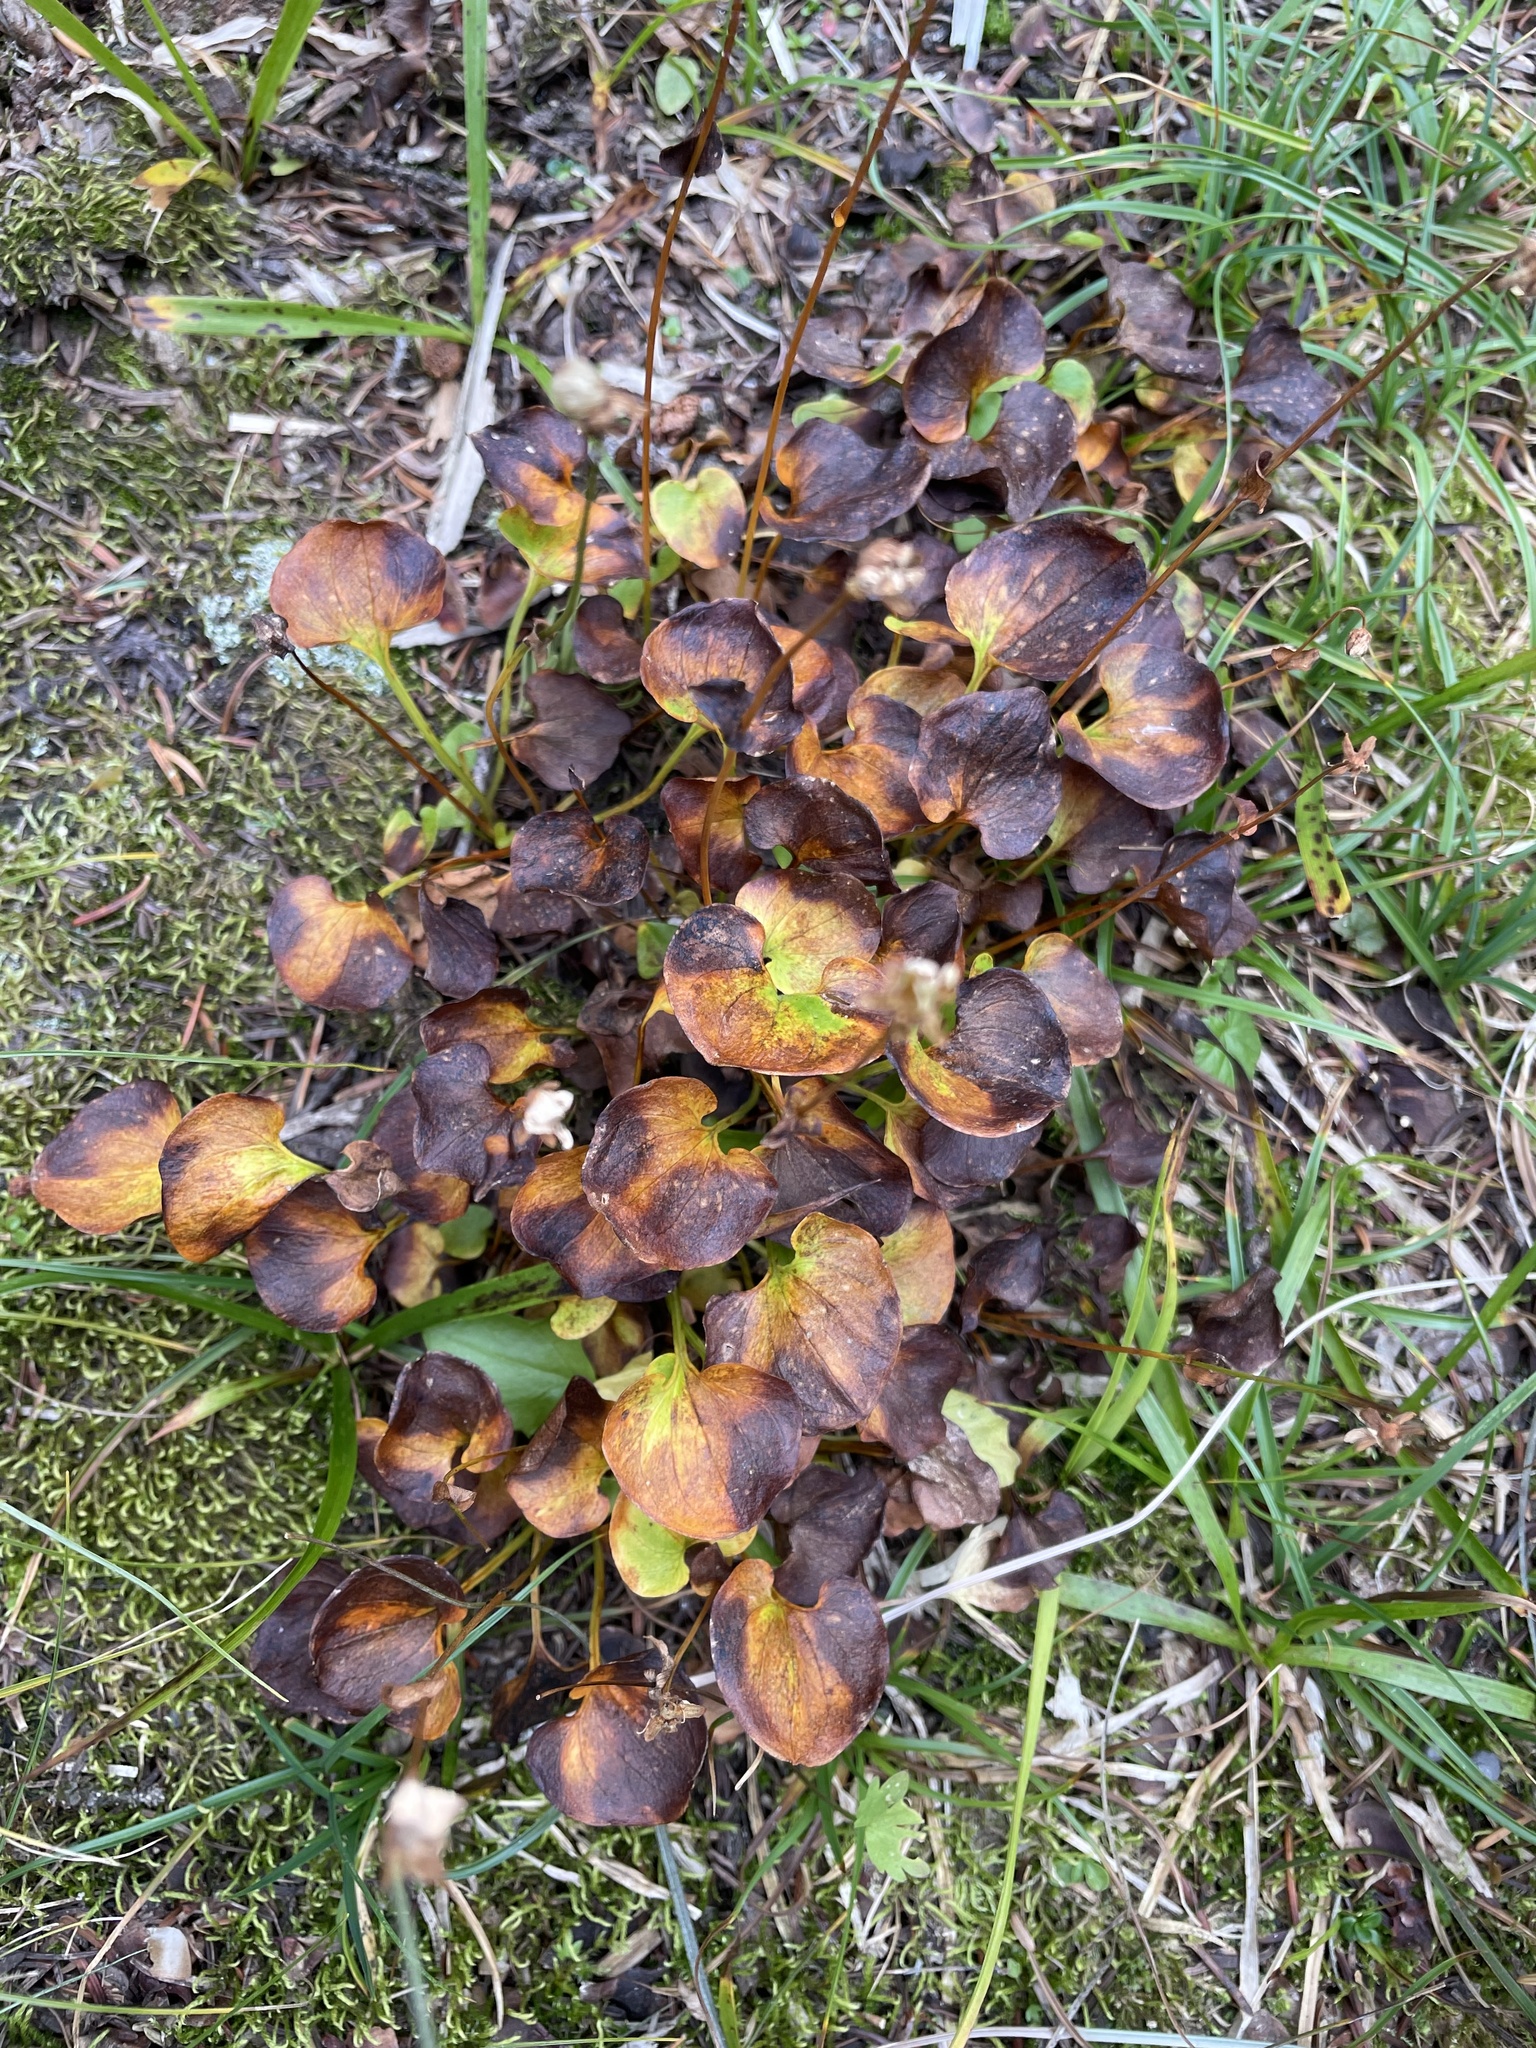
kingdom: Plantae
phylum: Tracheophyta
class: Magnoliopsida
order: Celastrales
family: Parnassiaceae
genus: Parnassia
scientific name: Parnassia fimbriata
